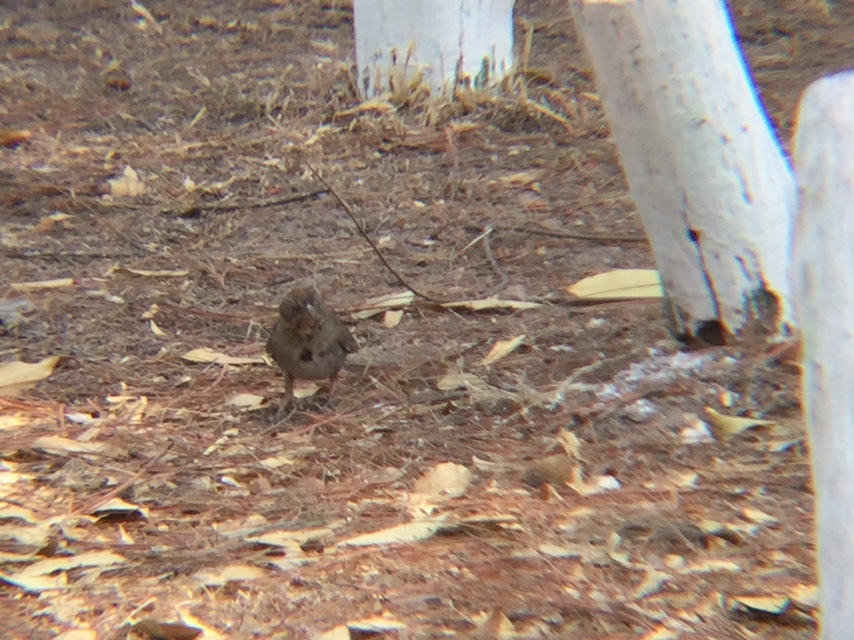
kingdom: Animalia
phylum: Chordata
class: Aves
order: Passeriformes
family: Passerellidae
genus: Melozone
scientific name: Melozone fusca
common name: Canyon towhee
